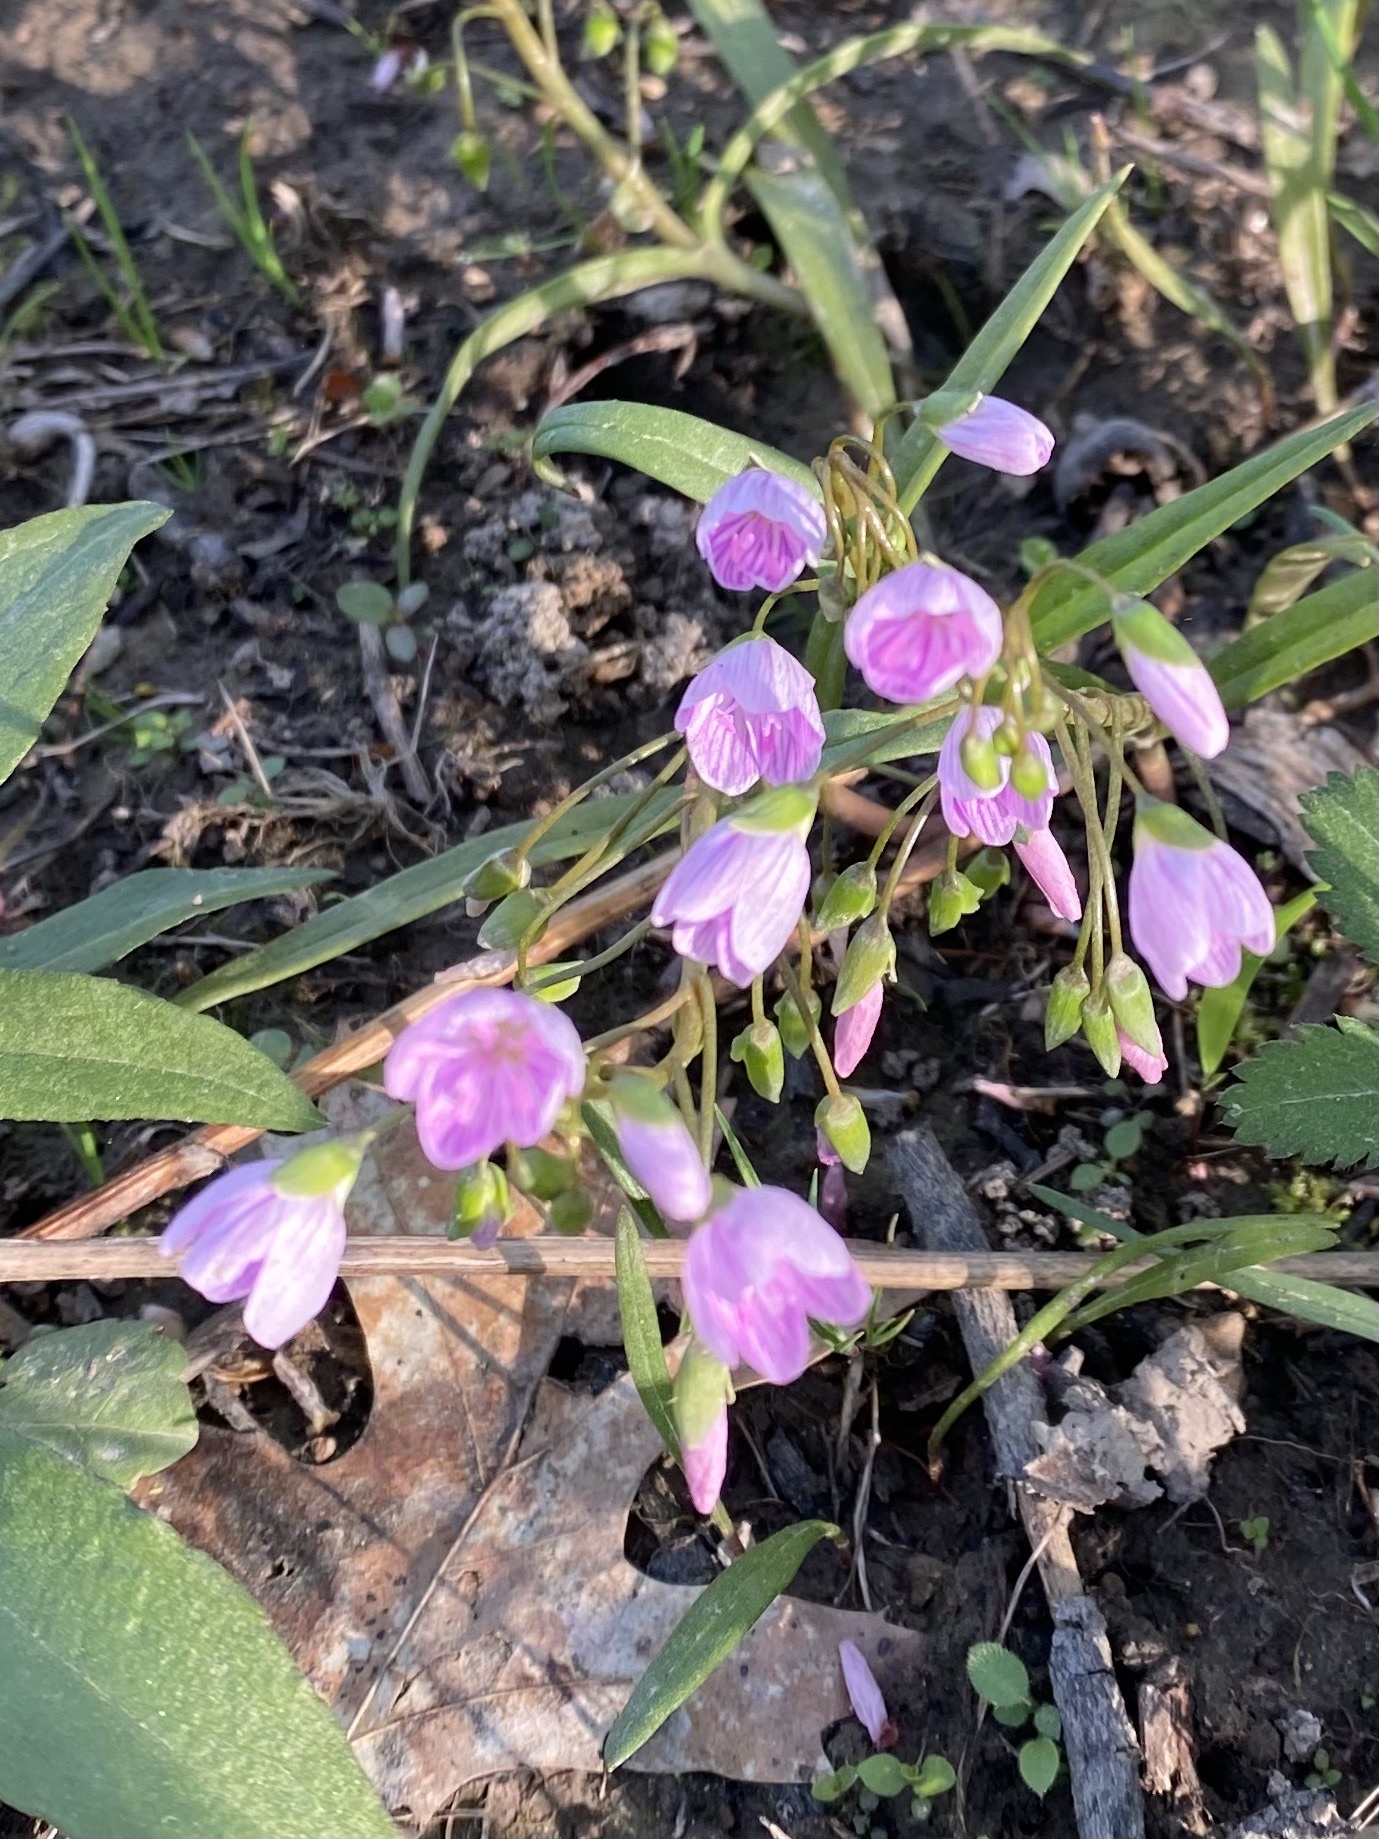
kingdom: Plantae
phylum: Tracheophyta
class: Magnoliopsida
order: Caryophyllales
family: Montiaceae
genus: Claytonia
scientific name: Claytonia virginica
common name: Virginia springbeauty
